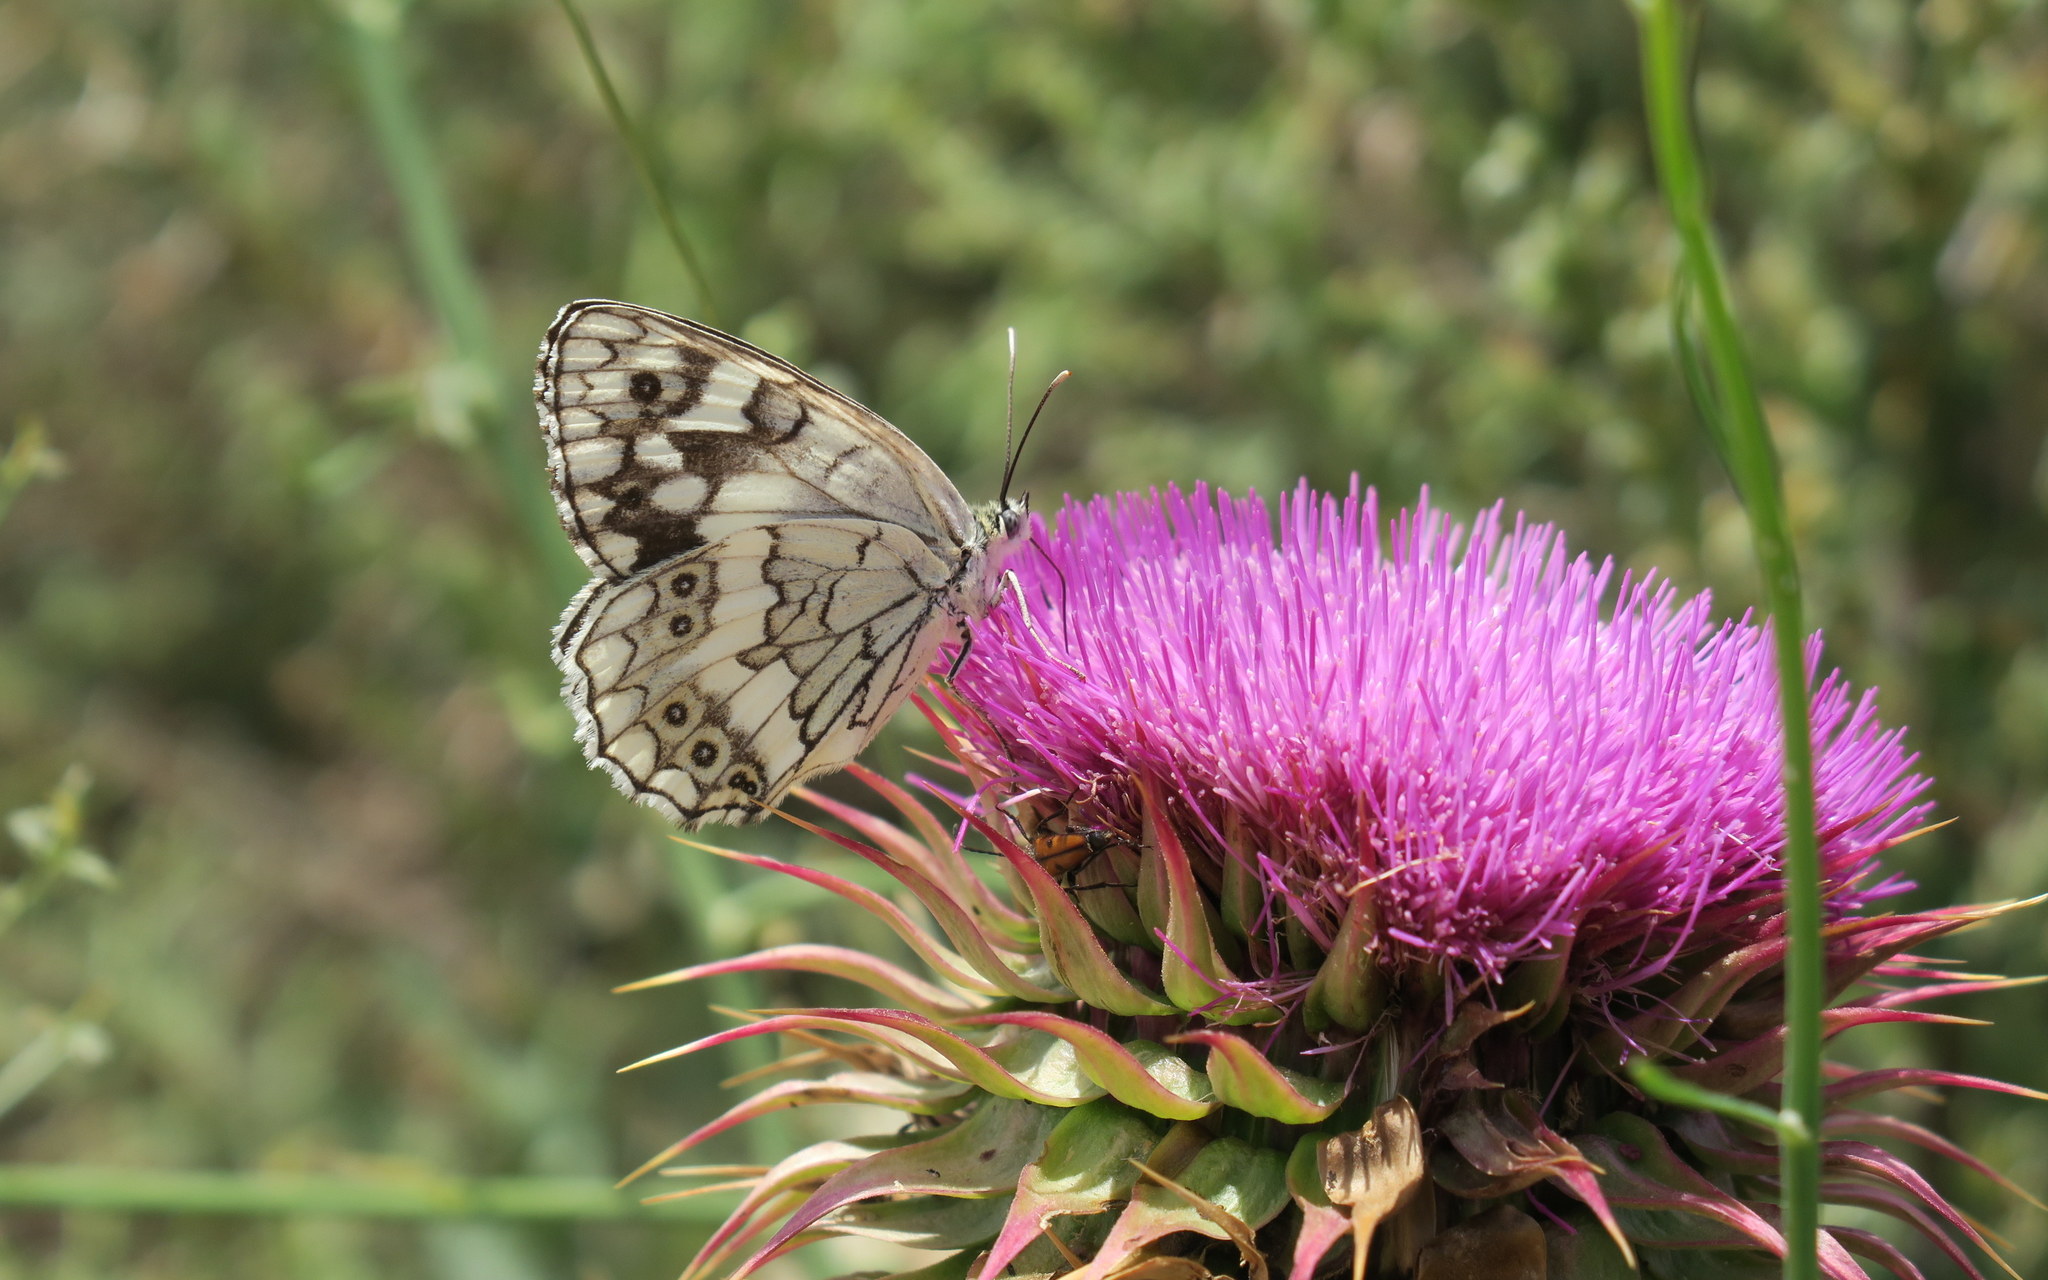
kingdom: Animalia
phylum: Arthropoda
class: Insecta
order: Lepidoptera
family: Nymphalidae
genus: Melanargia
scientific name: Melanargia larissa
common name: Balkan marbled white
